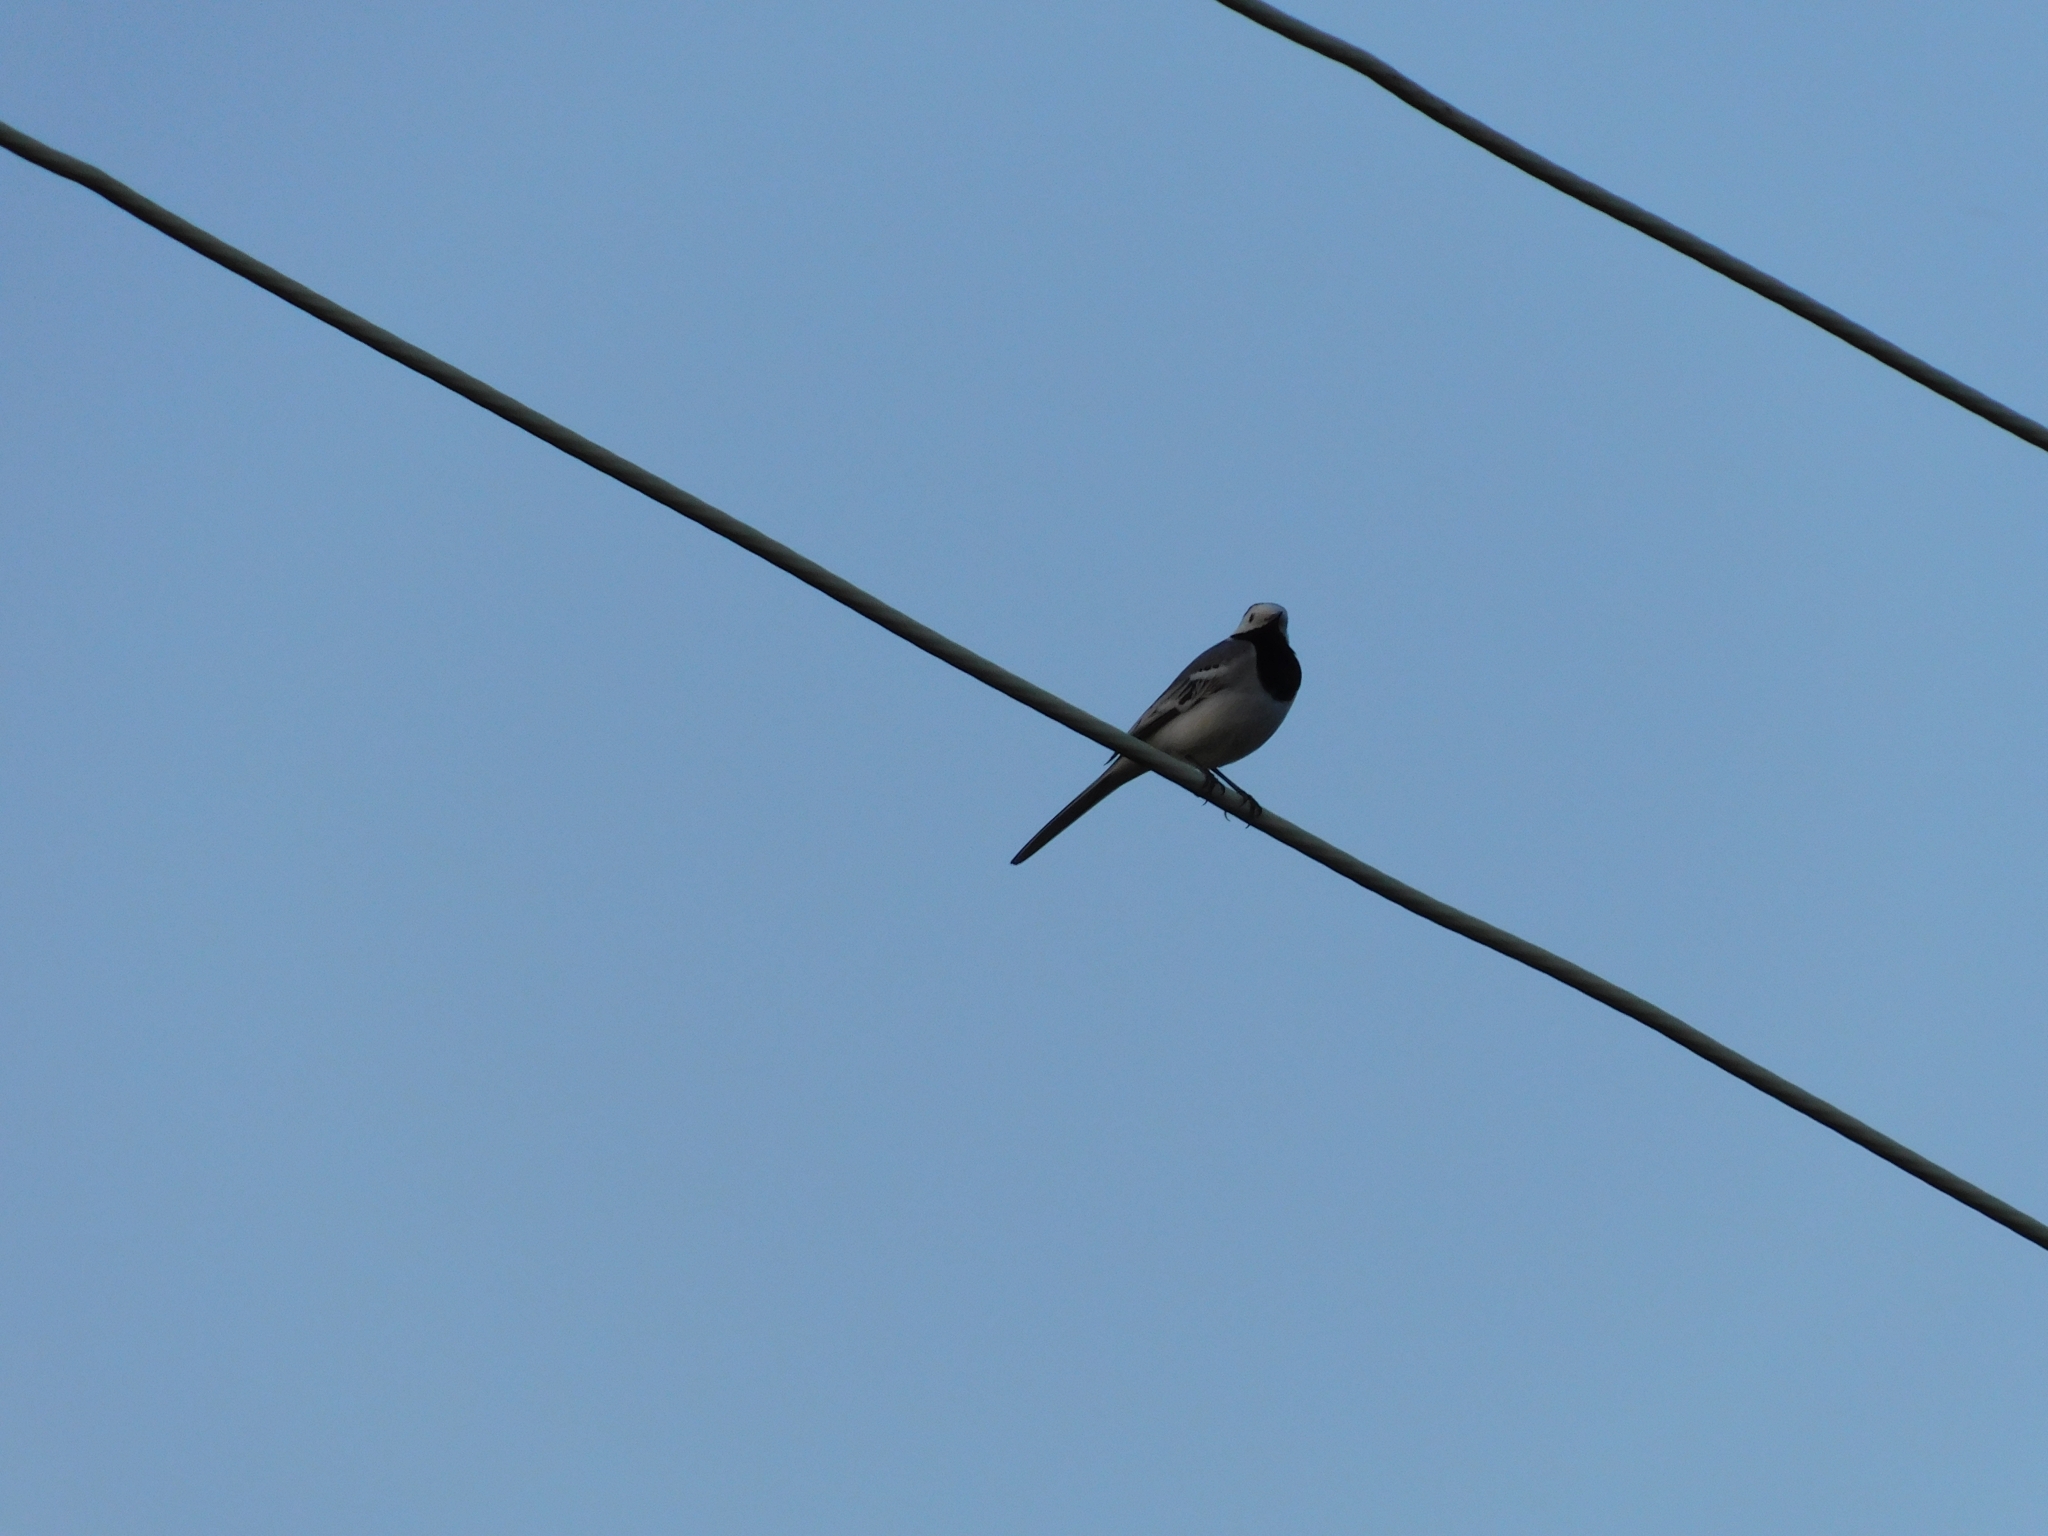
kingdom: Animalia
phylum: Chordata
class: Aves
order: Passeriformes
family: Motacillidae
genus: Motacilla
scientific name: Motacilla alba
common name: White wagtail
